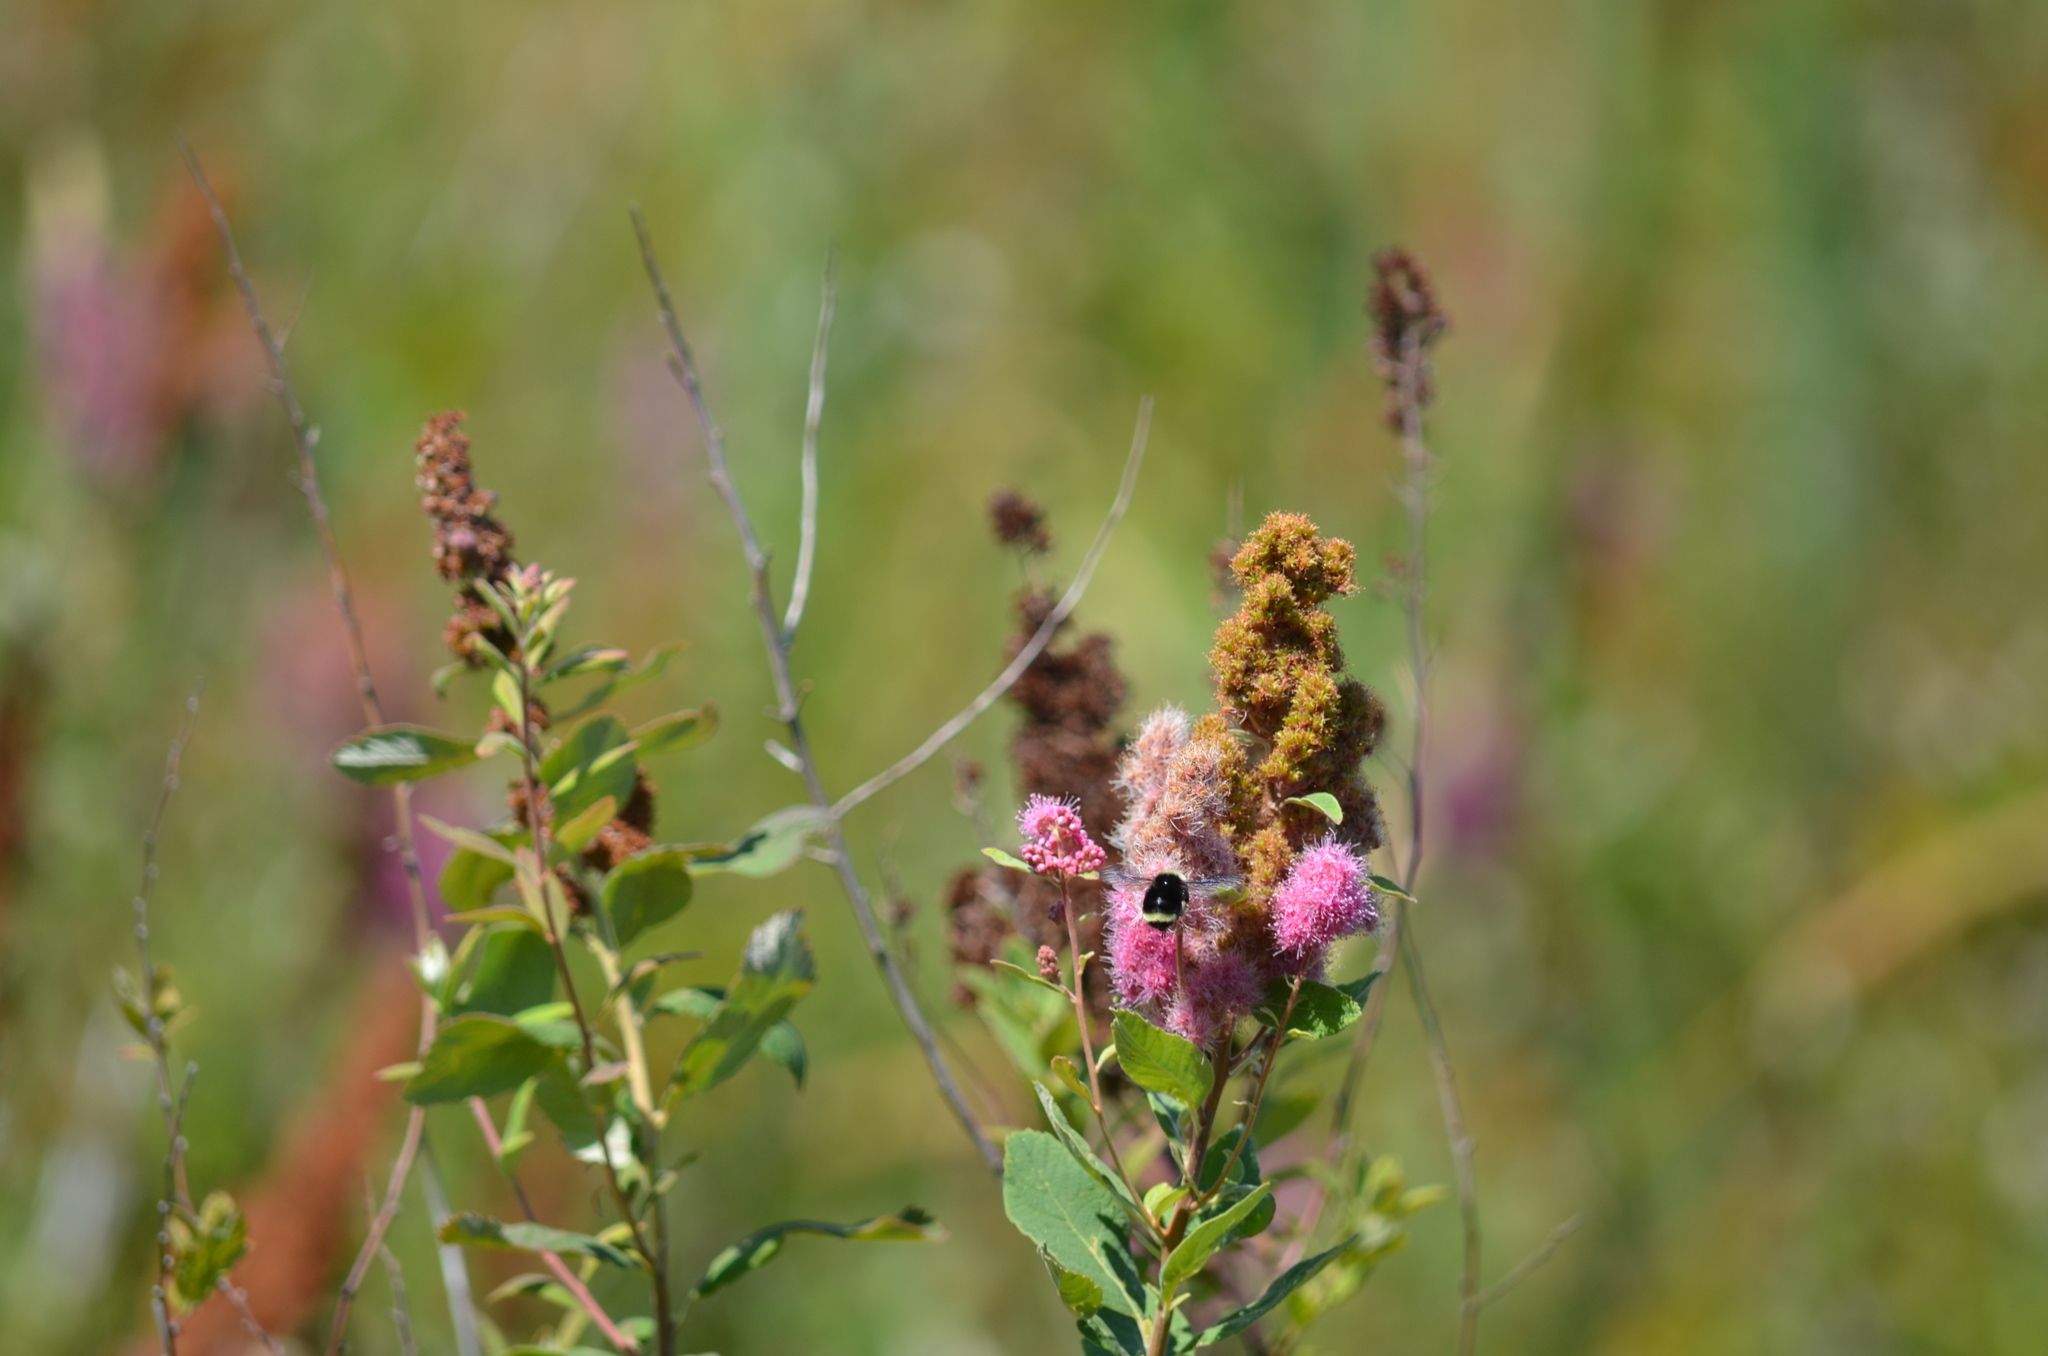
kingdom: Plantae
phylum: Tracheophyta
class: Magnoliopsida
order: Rosales
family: Rosaceae
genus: Spiraea
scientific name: Spiraea douglasii
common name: Steeplebush
